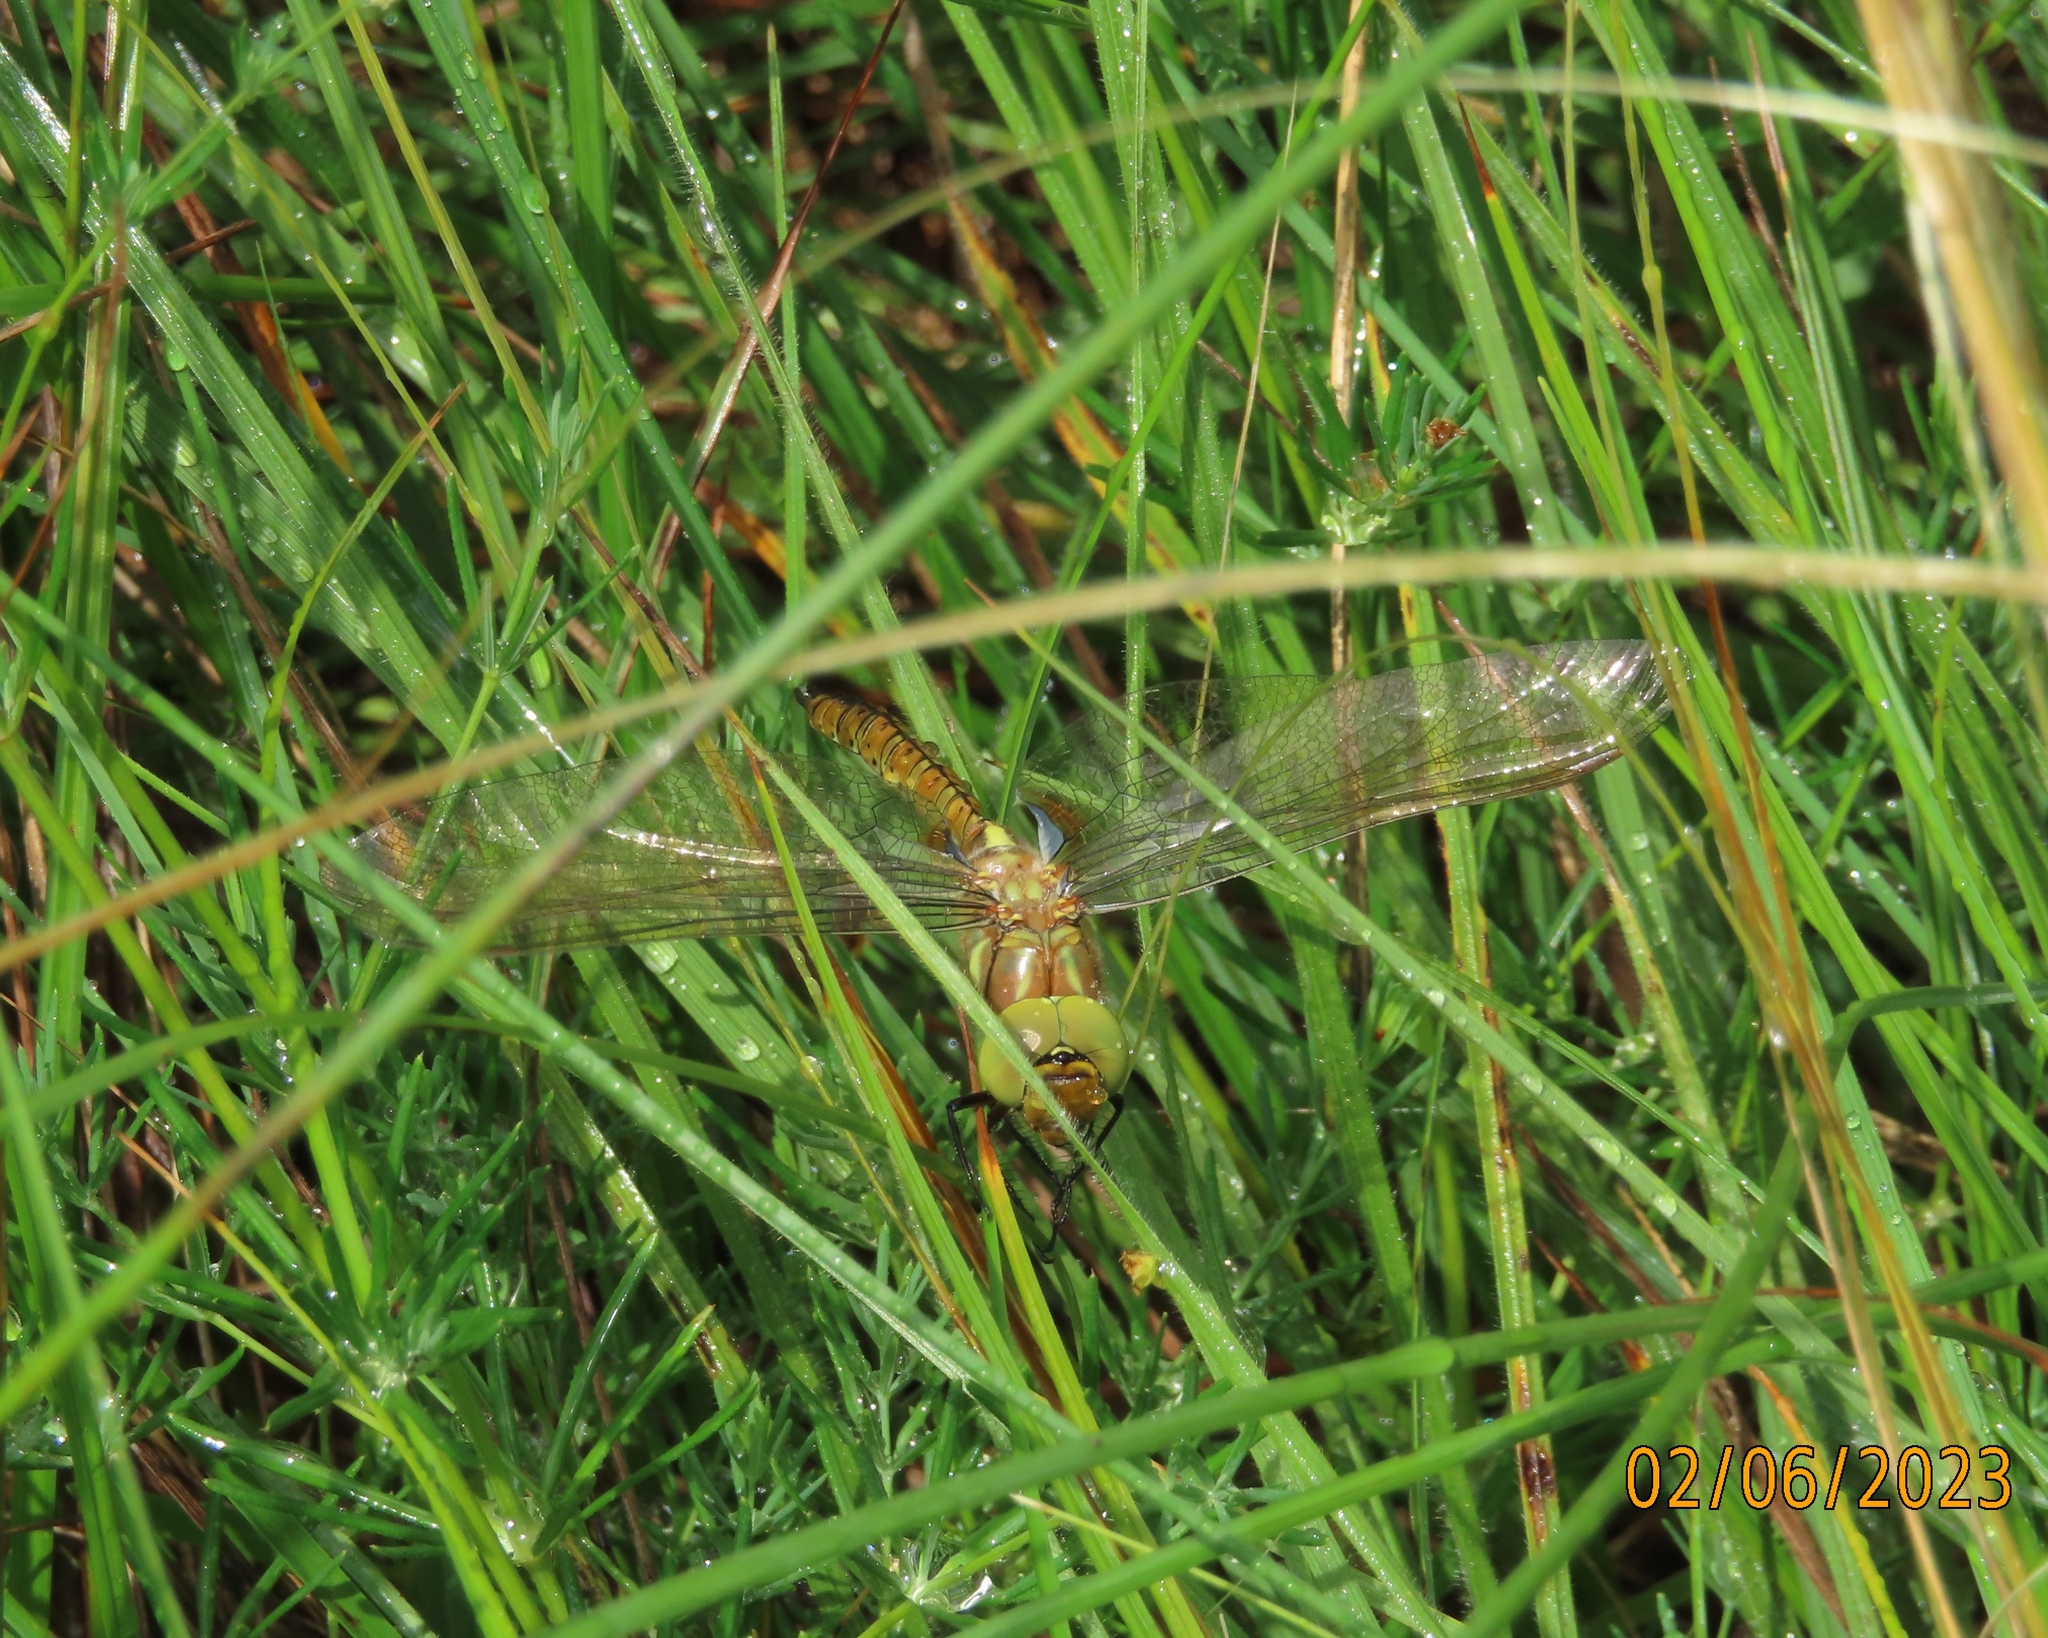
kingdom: Animalia
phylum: Arthropoda
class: Insecta
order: Odonata
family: Aeshnidae
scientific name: Aeshnidae
